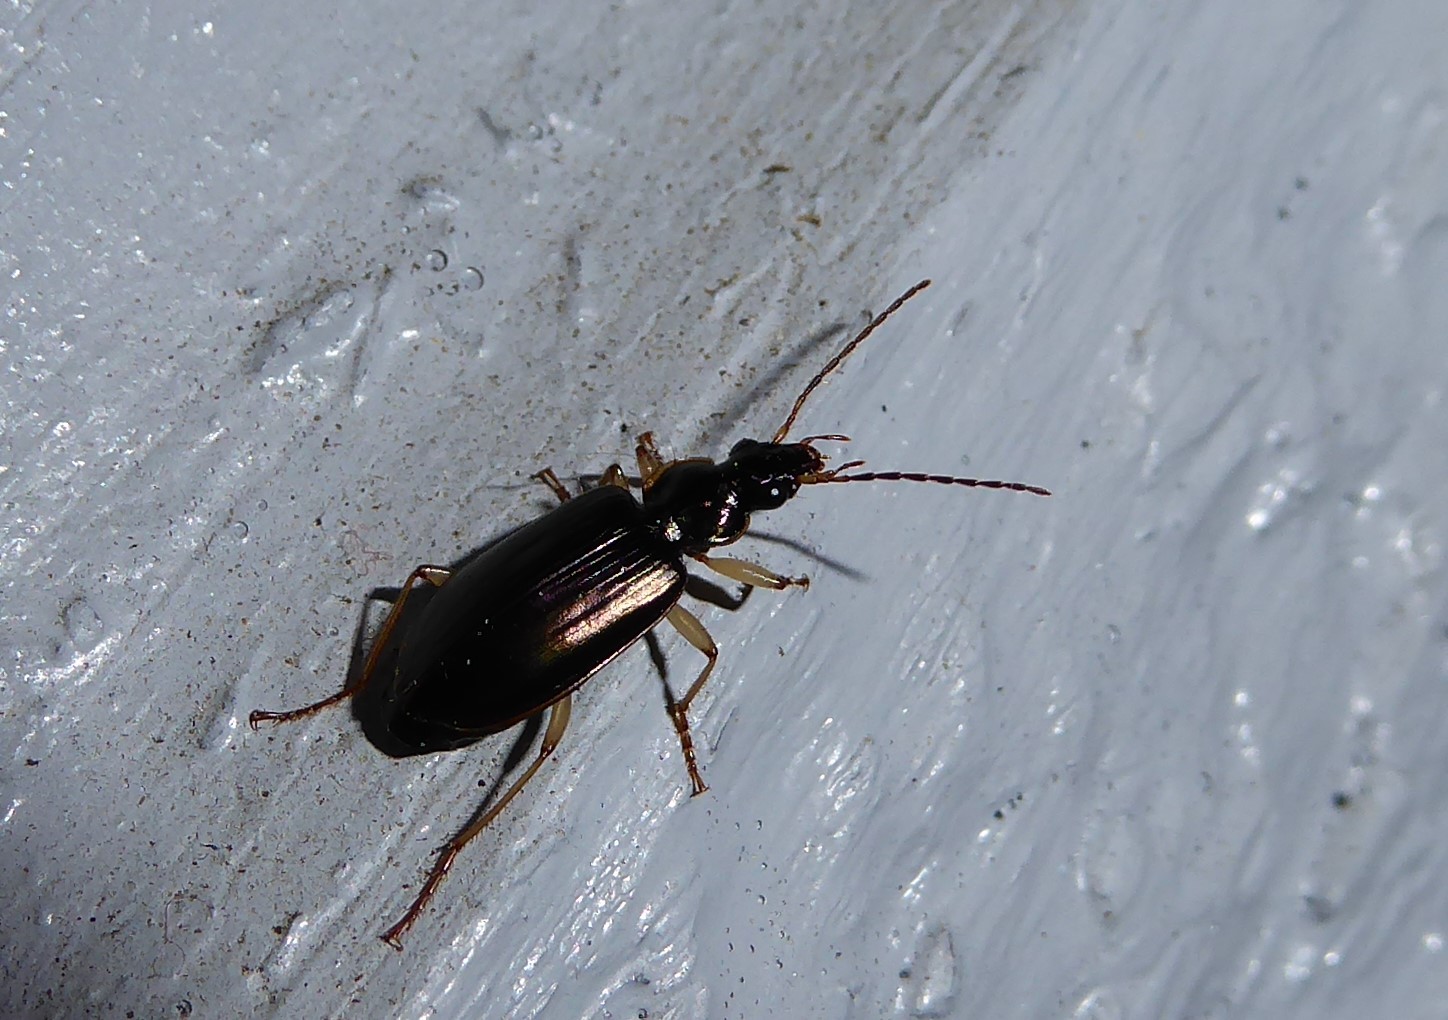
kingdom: Animalia
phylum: Arthropoda
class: Insecta
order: Coleoptera
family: Carabidae
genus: Notagonum
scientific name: Notagonum submetallicum
